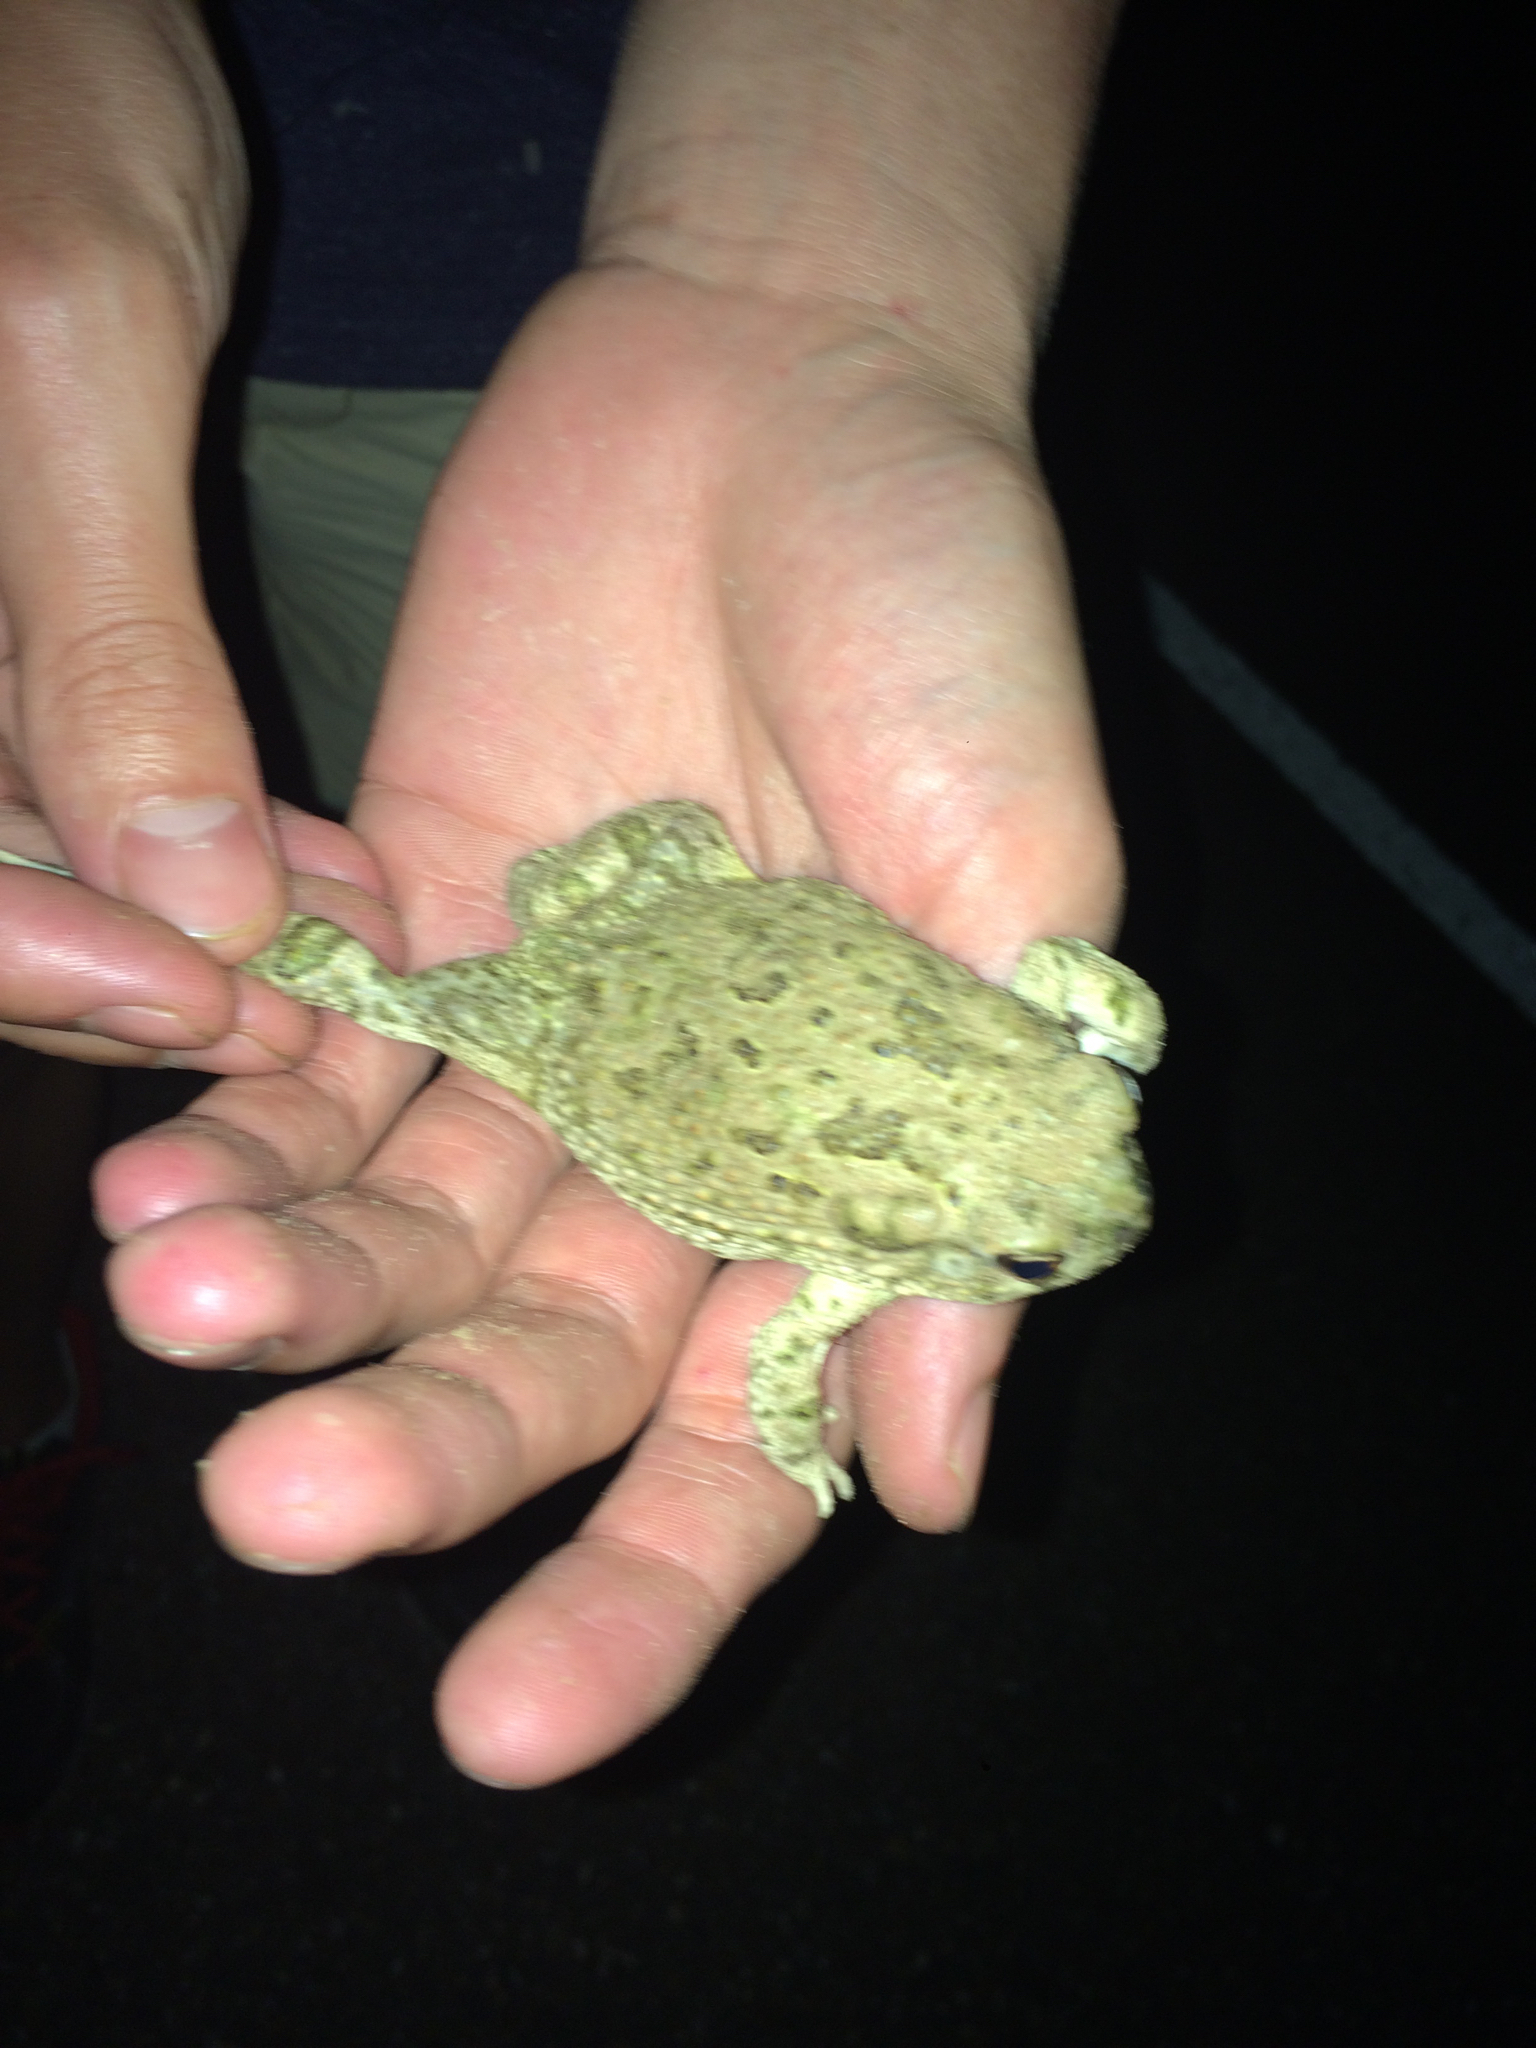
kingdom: Animalia
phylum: Chordata
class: Amphibia
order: Anura
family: Bufonidae
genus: Anaxyrus
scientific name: Anaxyrus speciosus
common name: Texas toad
